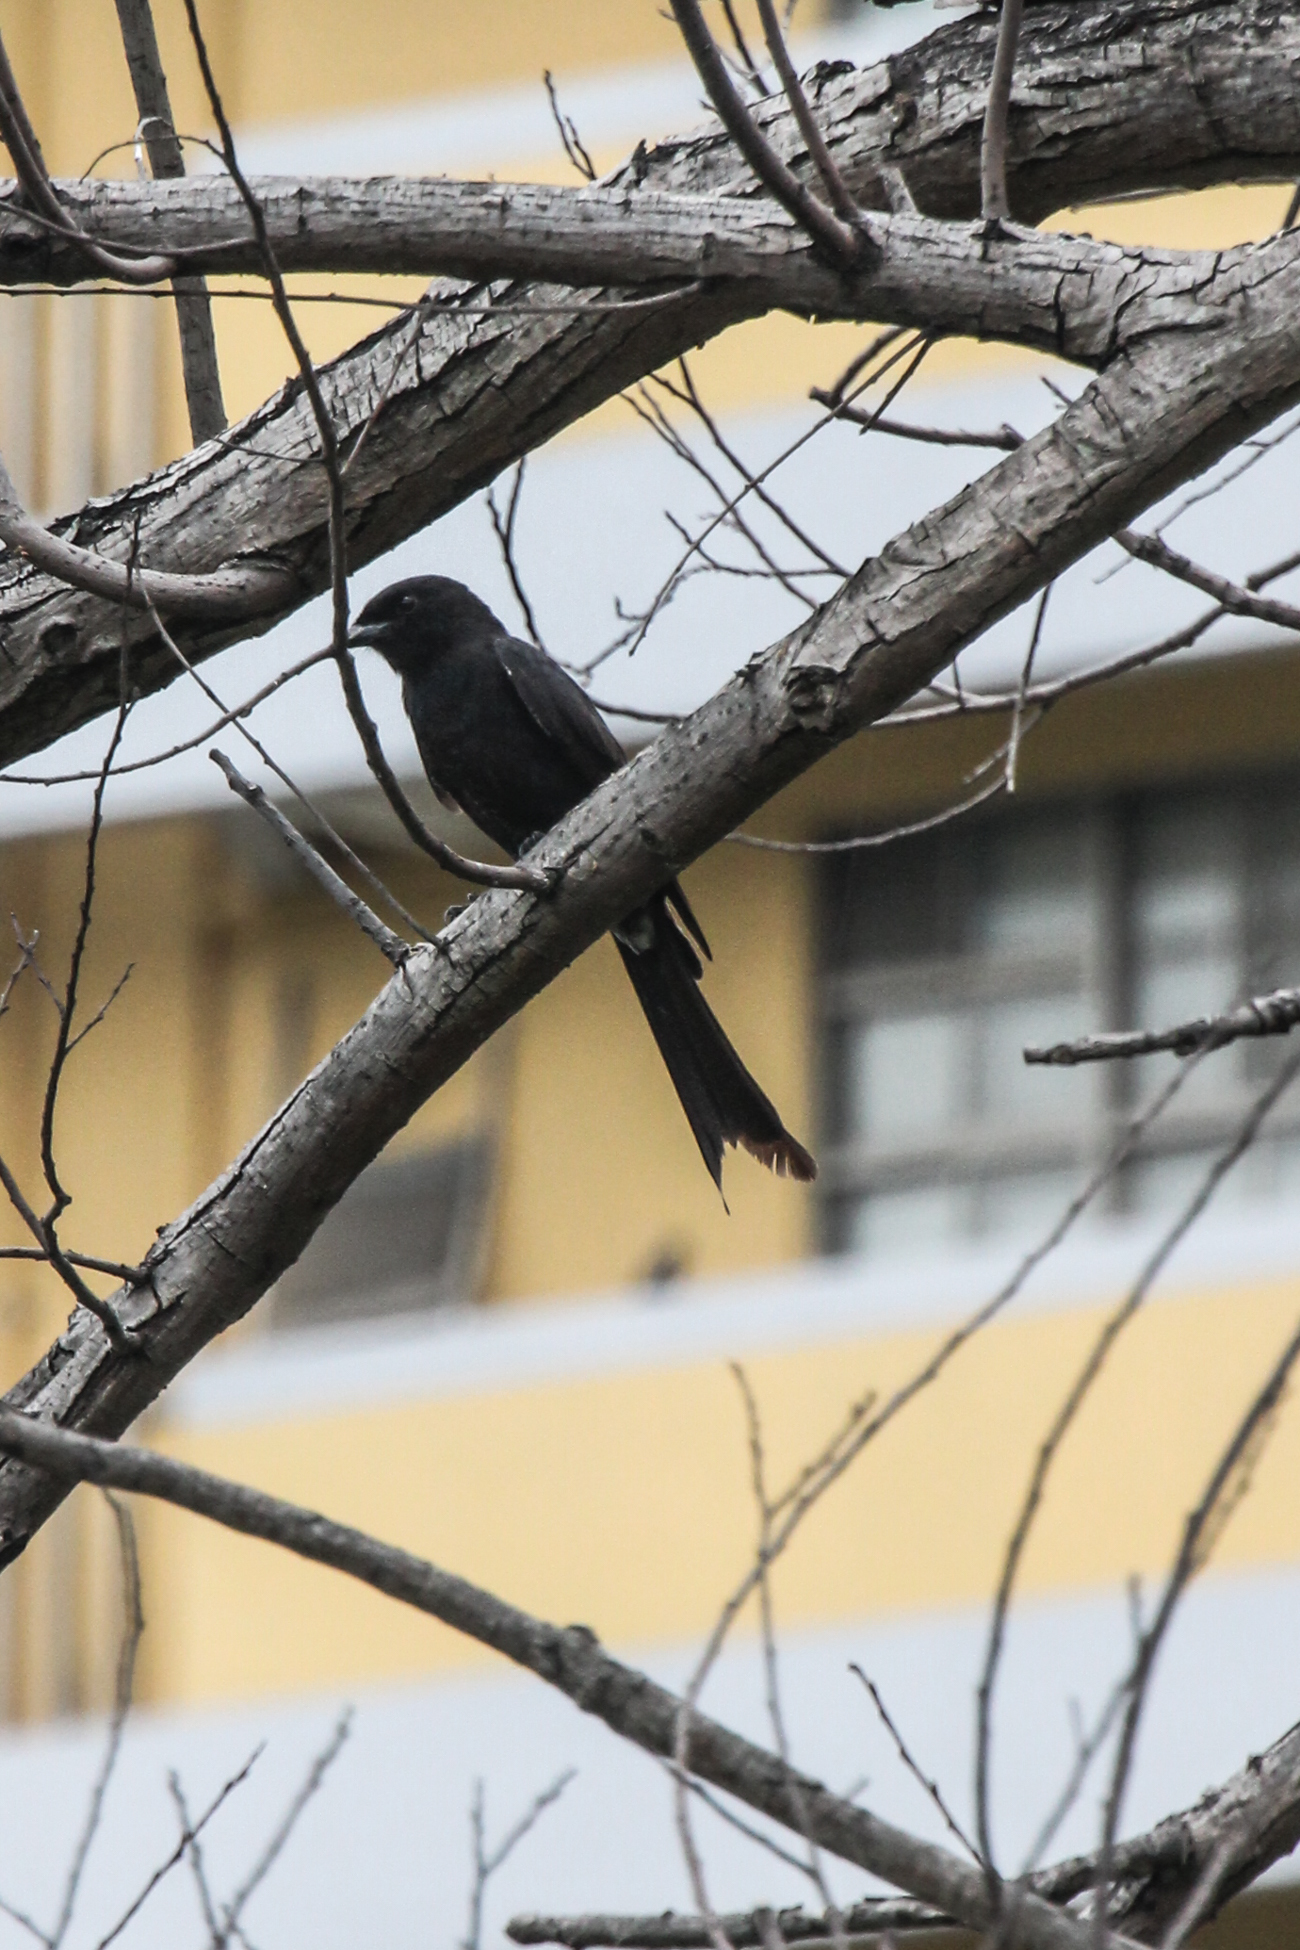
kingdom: Animalia
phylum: Chordata
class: Aves
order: Passeriformes
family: Dicruridae
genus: Dicrurus
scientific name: Dicrurus macrocercus
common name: Black drongo
